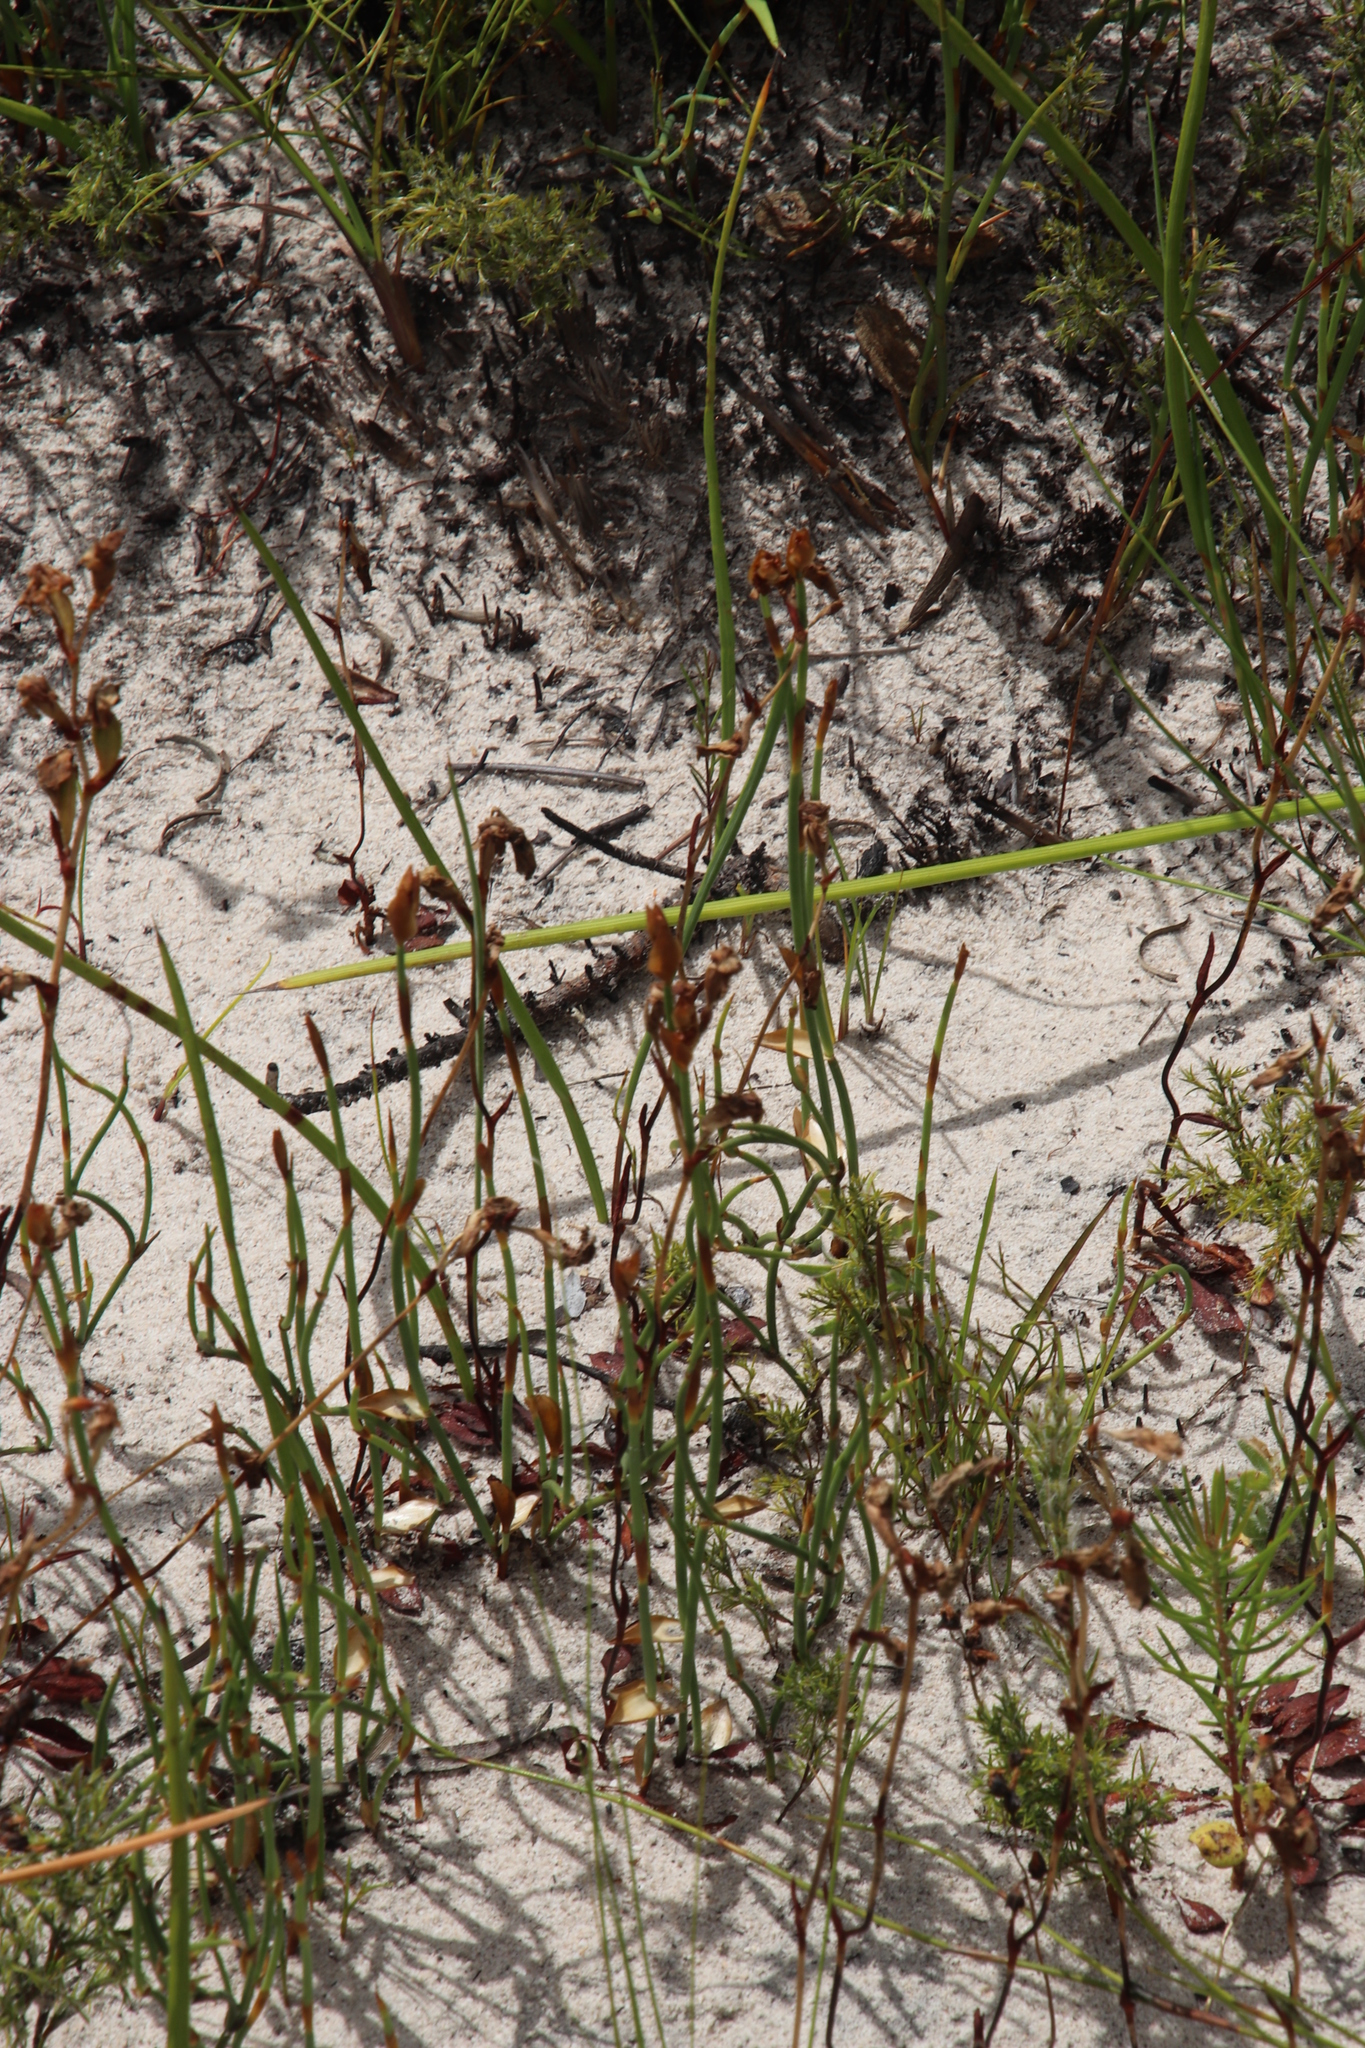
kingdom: Plantae
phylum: Tracheophyta
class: Liliopsida
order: Asparagales
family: Orchidaceae
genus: Disa
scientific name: Disa flexuosa
